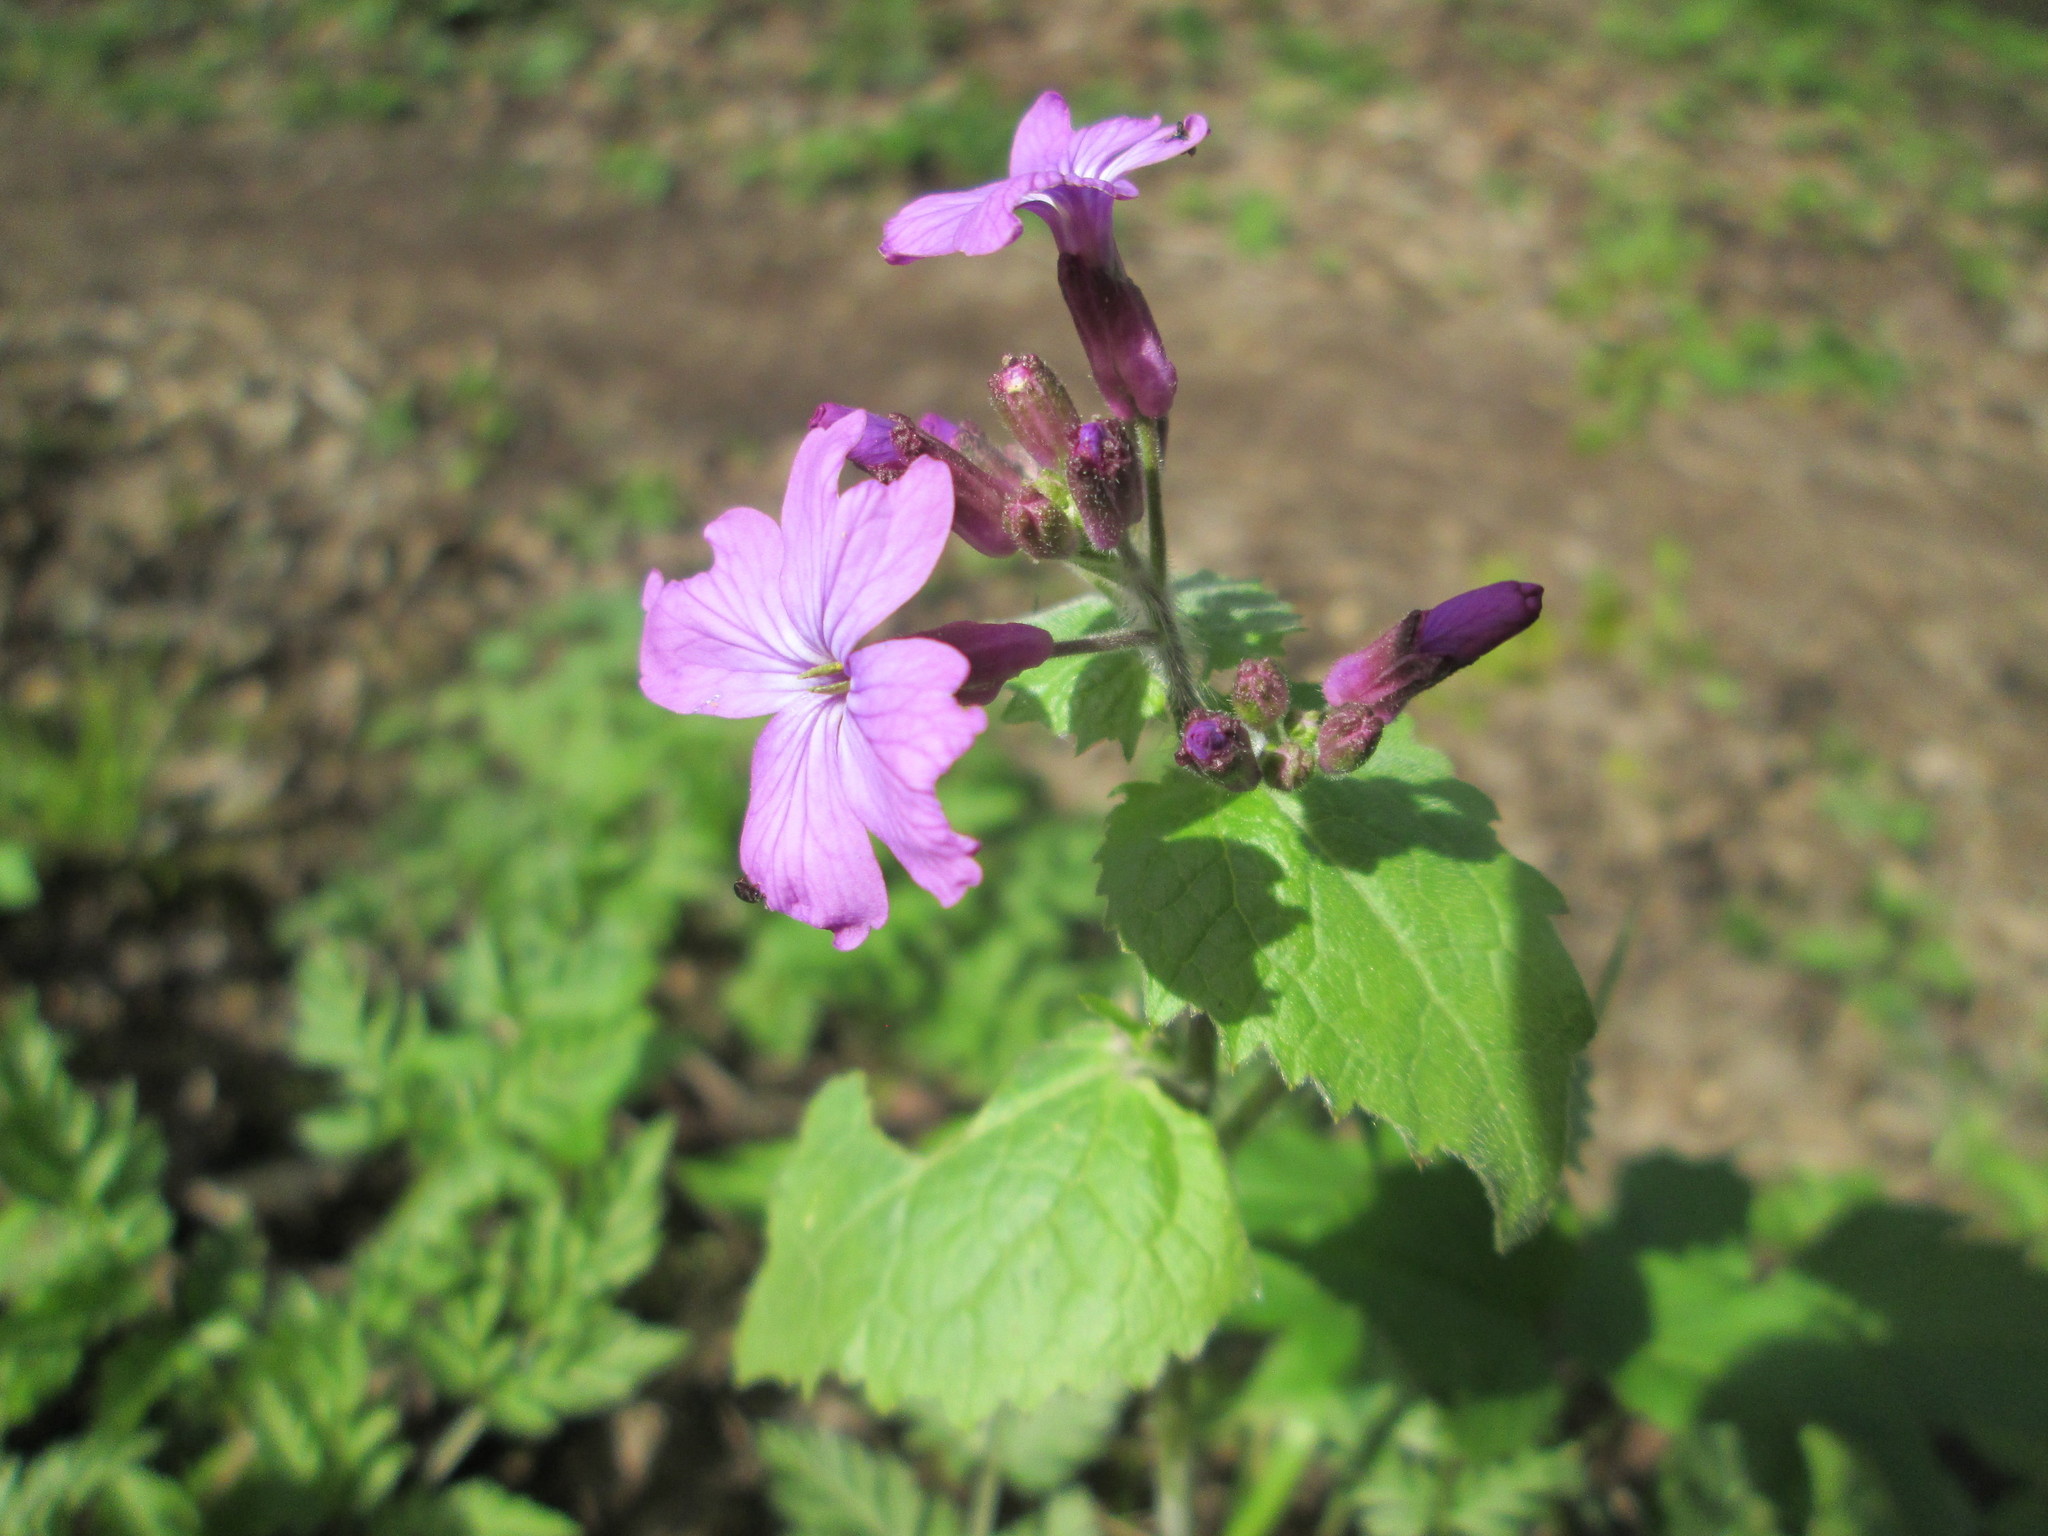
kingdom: Plantae
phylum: Tracheophyta
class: Magnoliopsida
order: Brassicales
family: Brassicaceae
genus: Lunaria
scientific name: Lunaria annua
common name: Honesty
